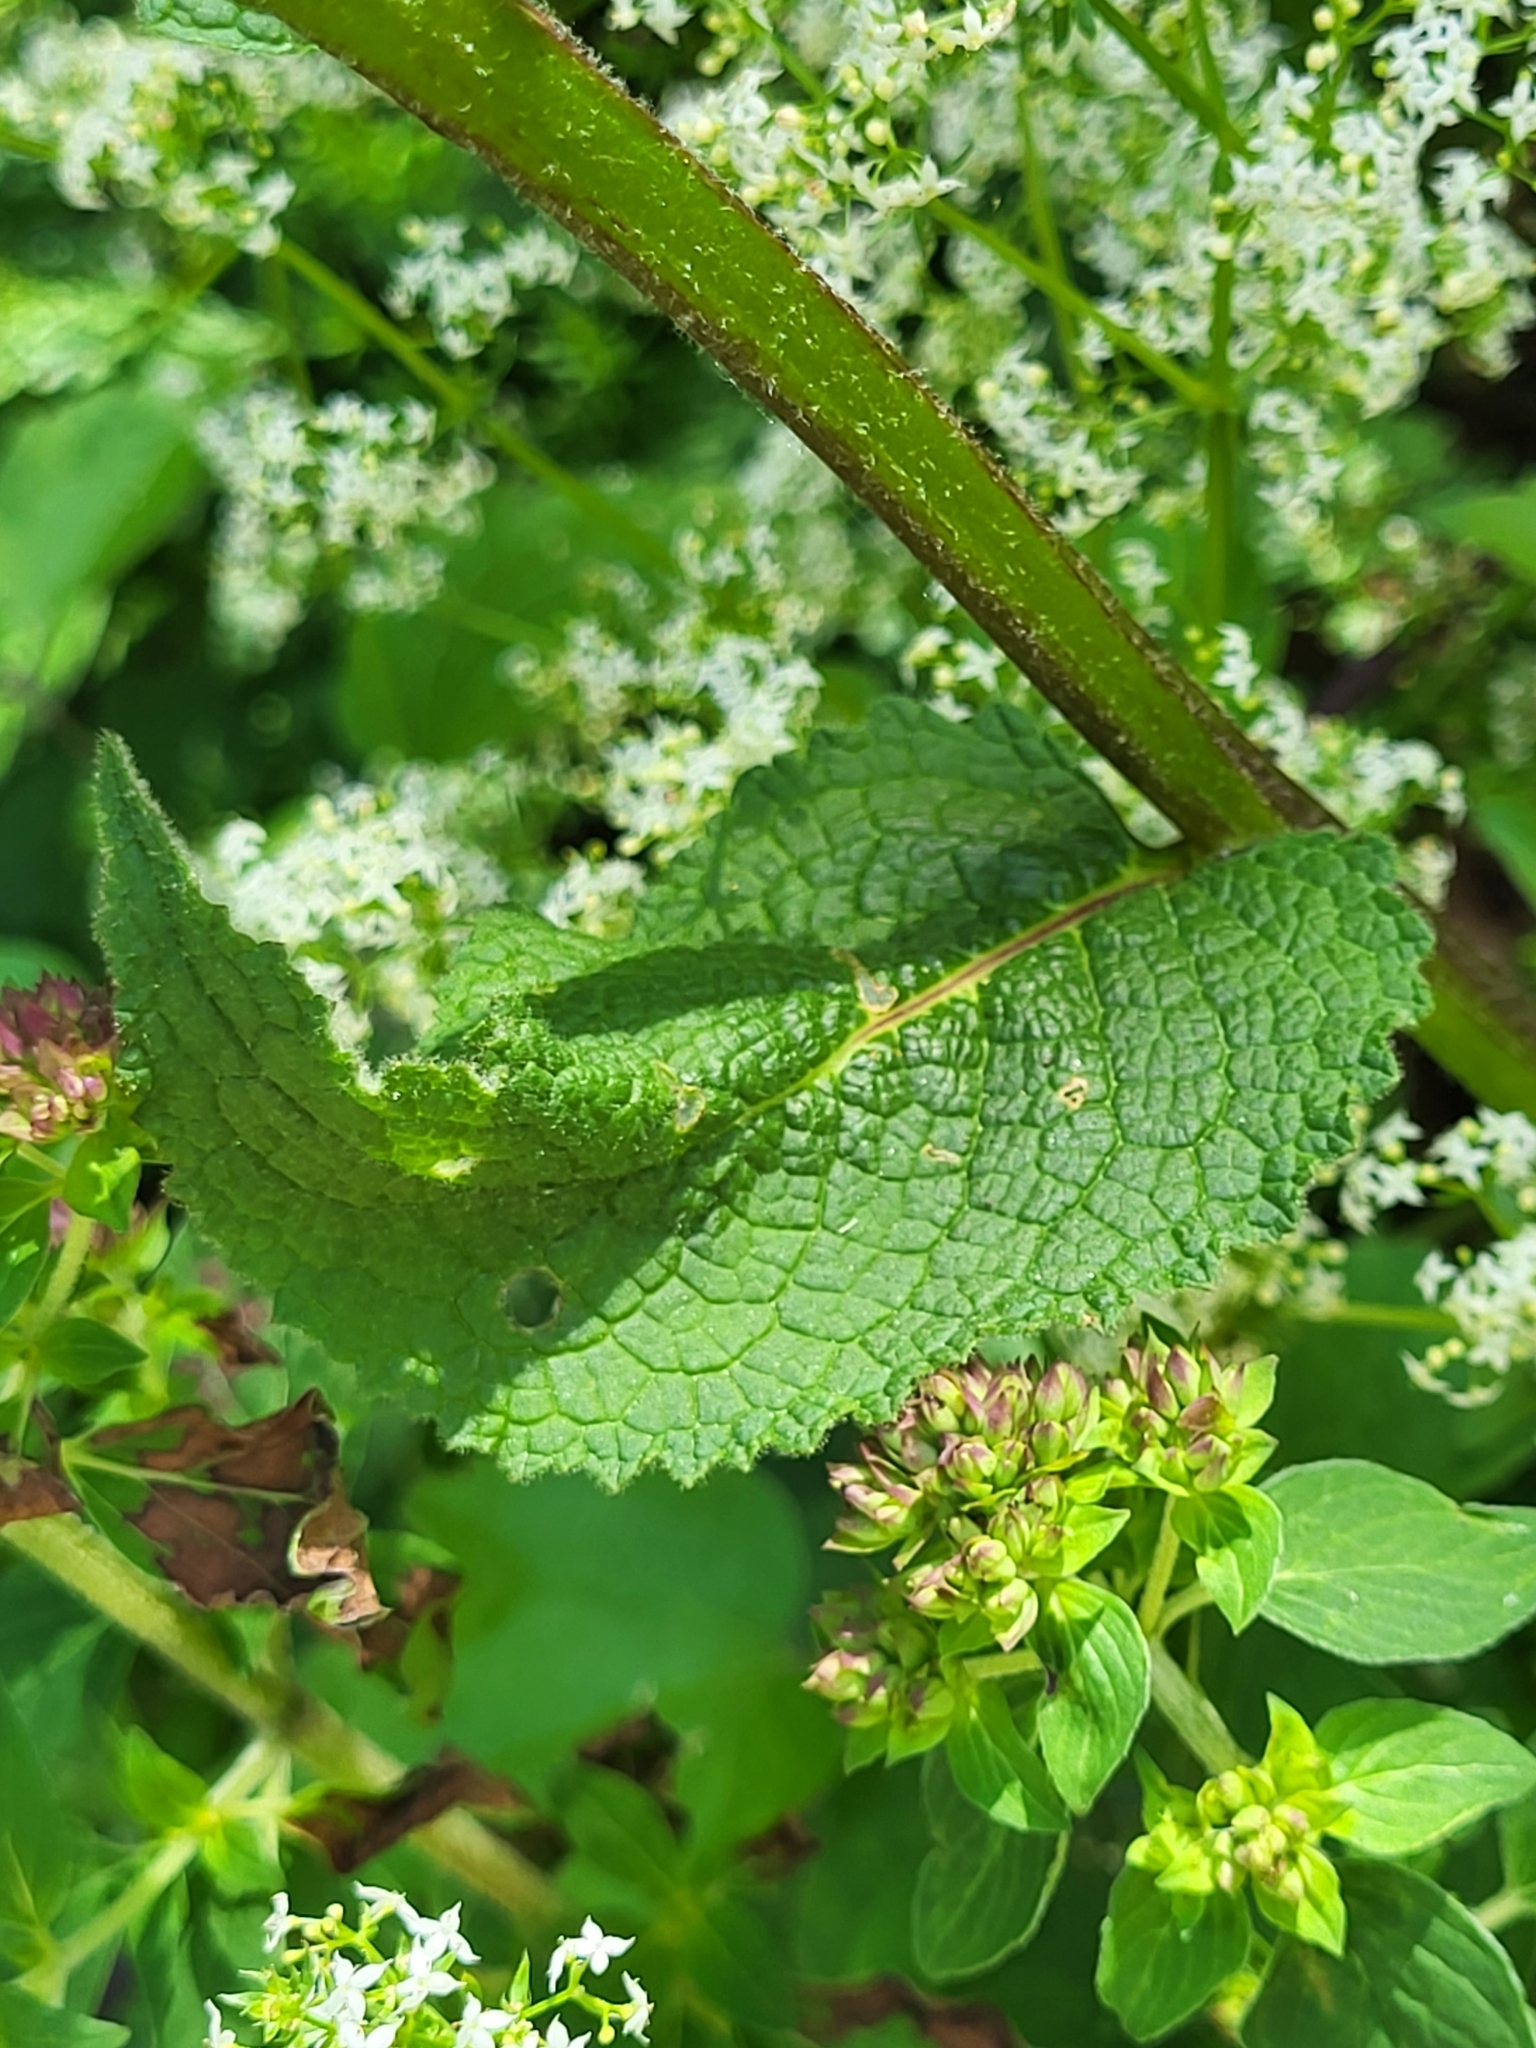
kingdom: Plantae
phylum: Tracheophyta
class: Magnoliopsida
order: Lamiales
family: Scrophulariaceae
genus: Verbascum
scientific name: Verbascum nigrum
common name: Dark mullein
